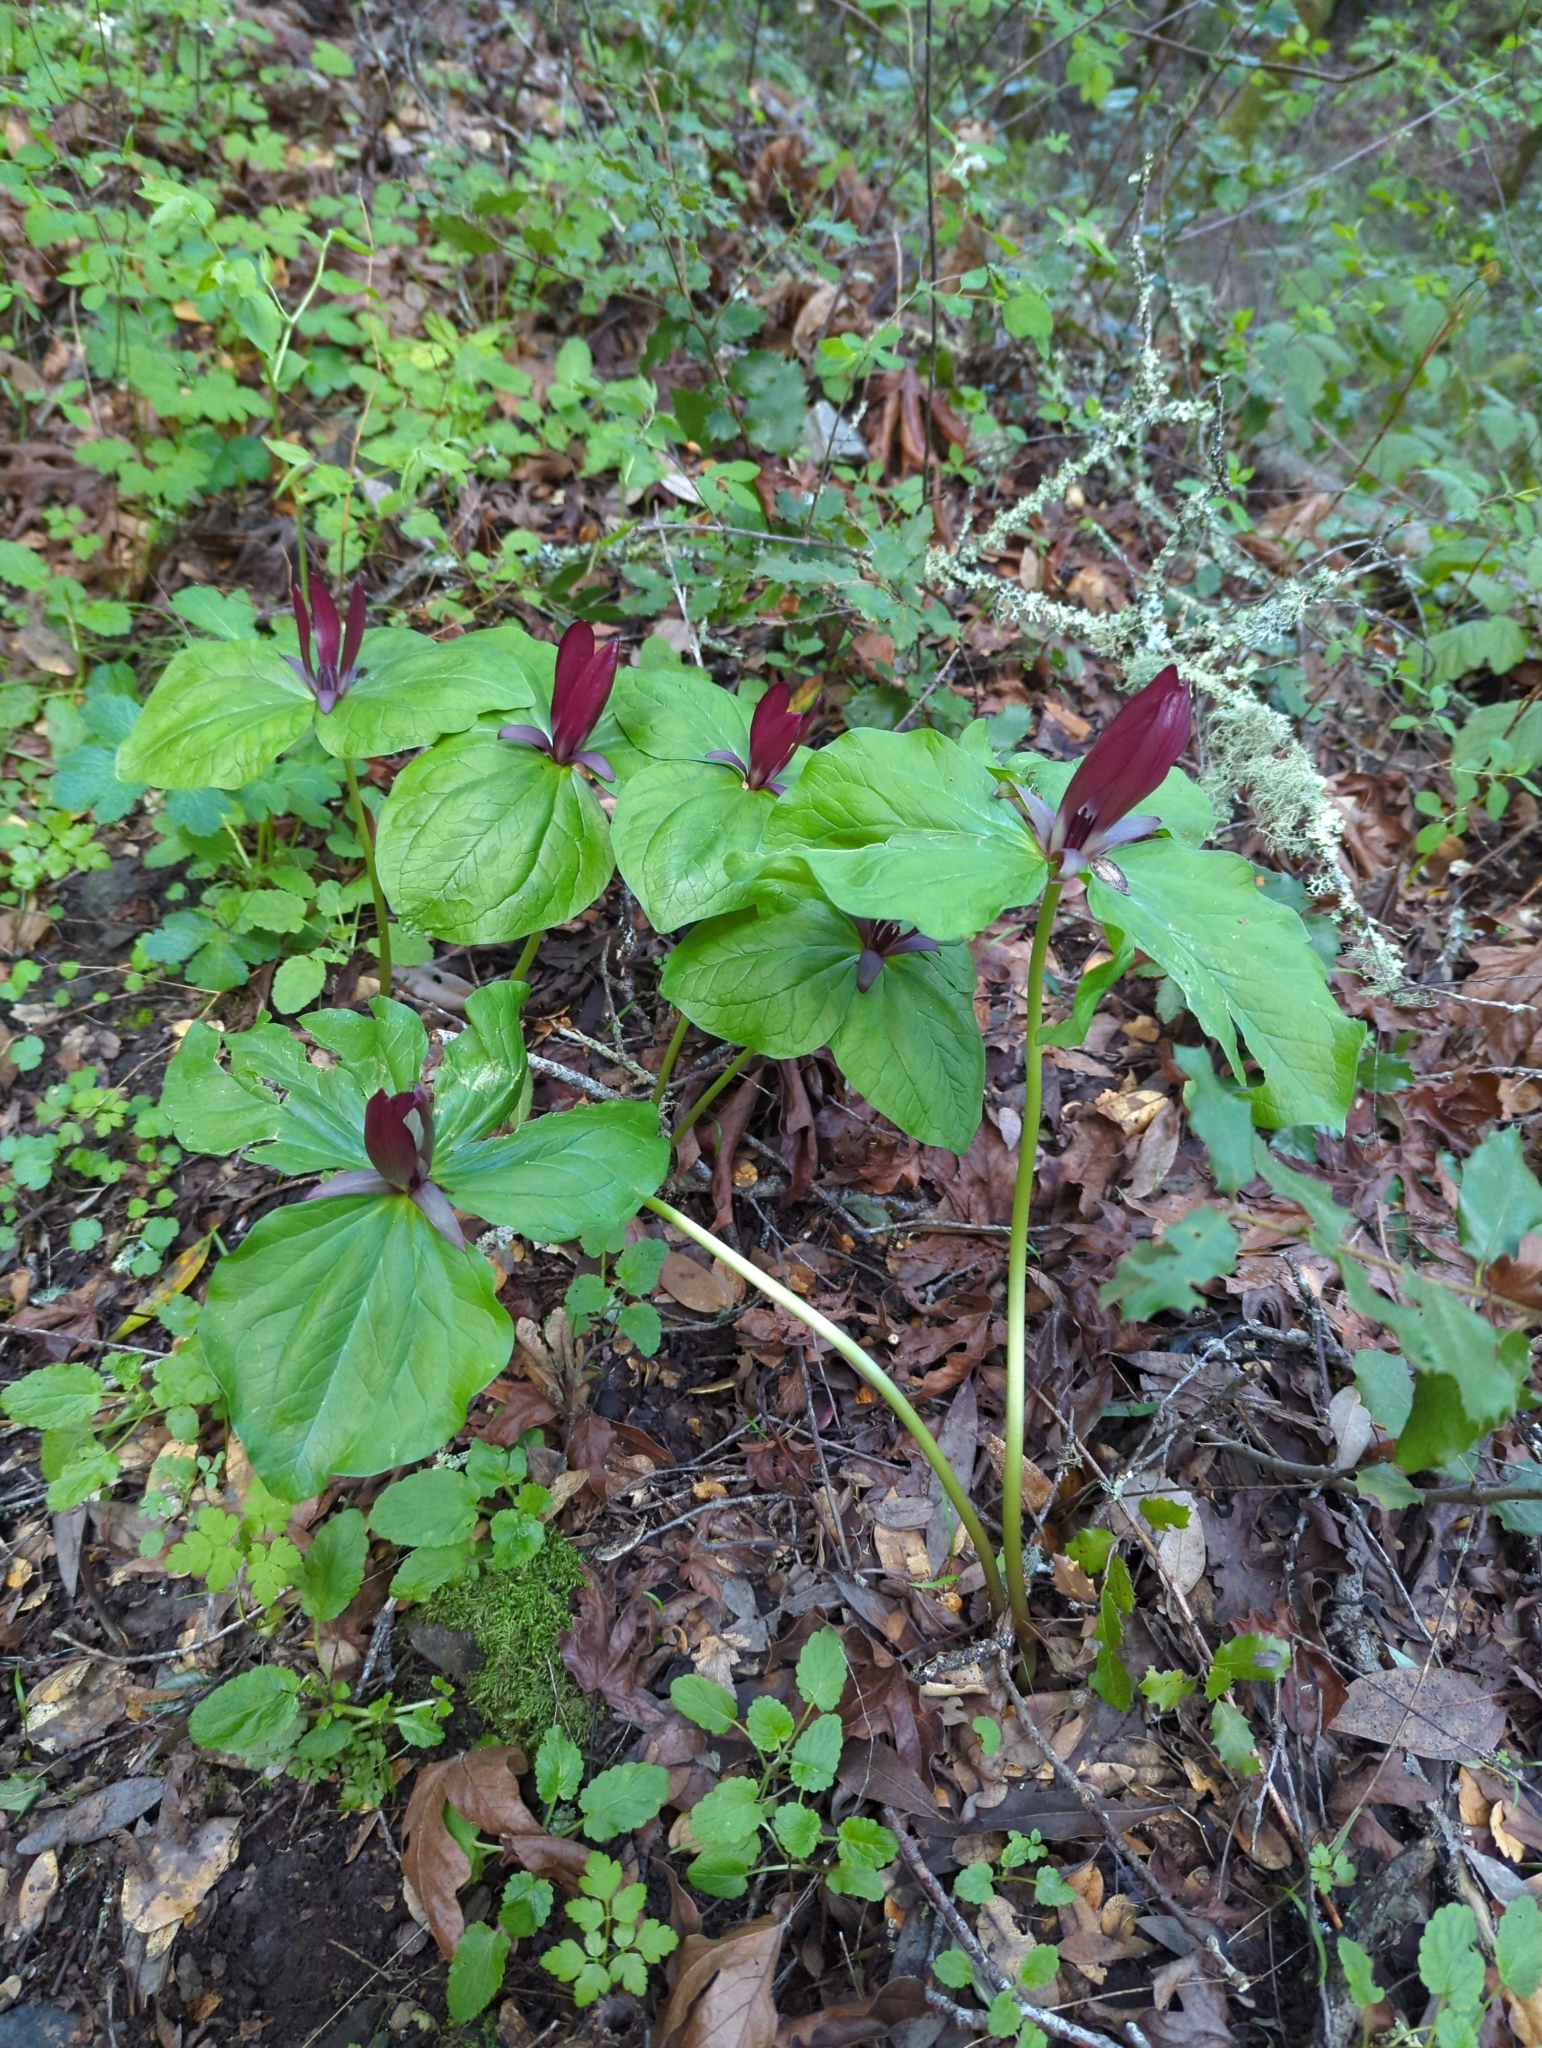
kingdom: Plantae
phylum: Tracheophyta
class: Liliopsida
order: Liliales
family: Melanthiaceae
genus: Trillium
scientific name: Trillium chloropetalum
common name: Giant trillium
